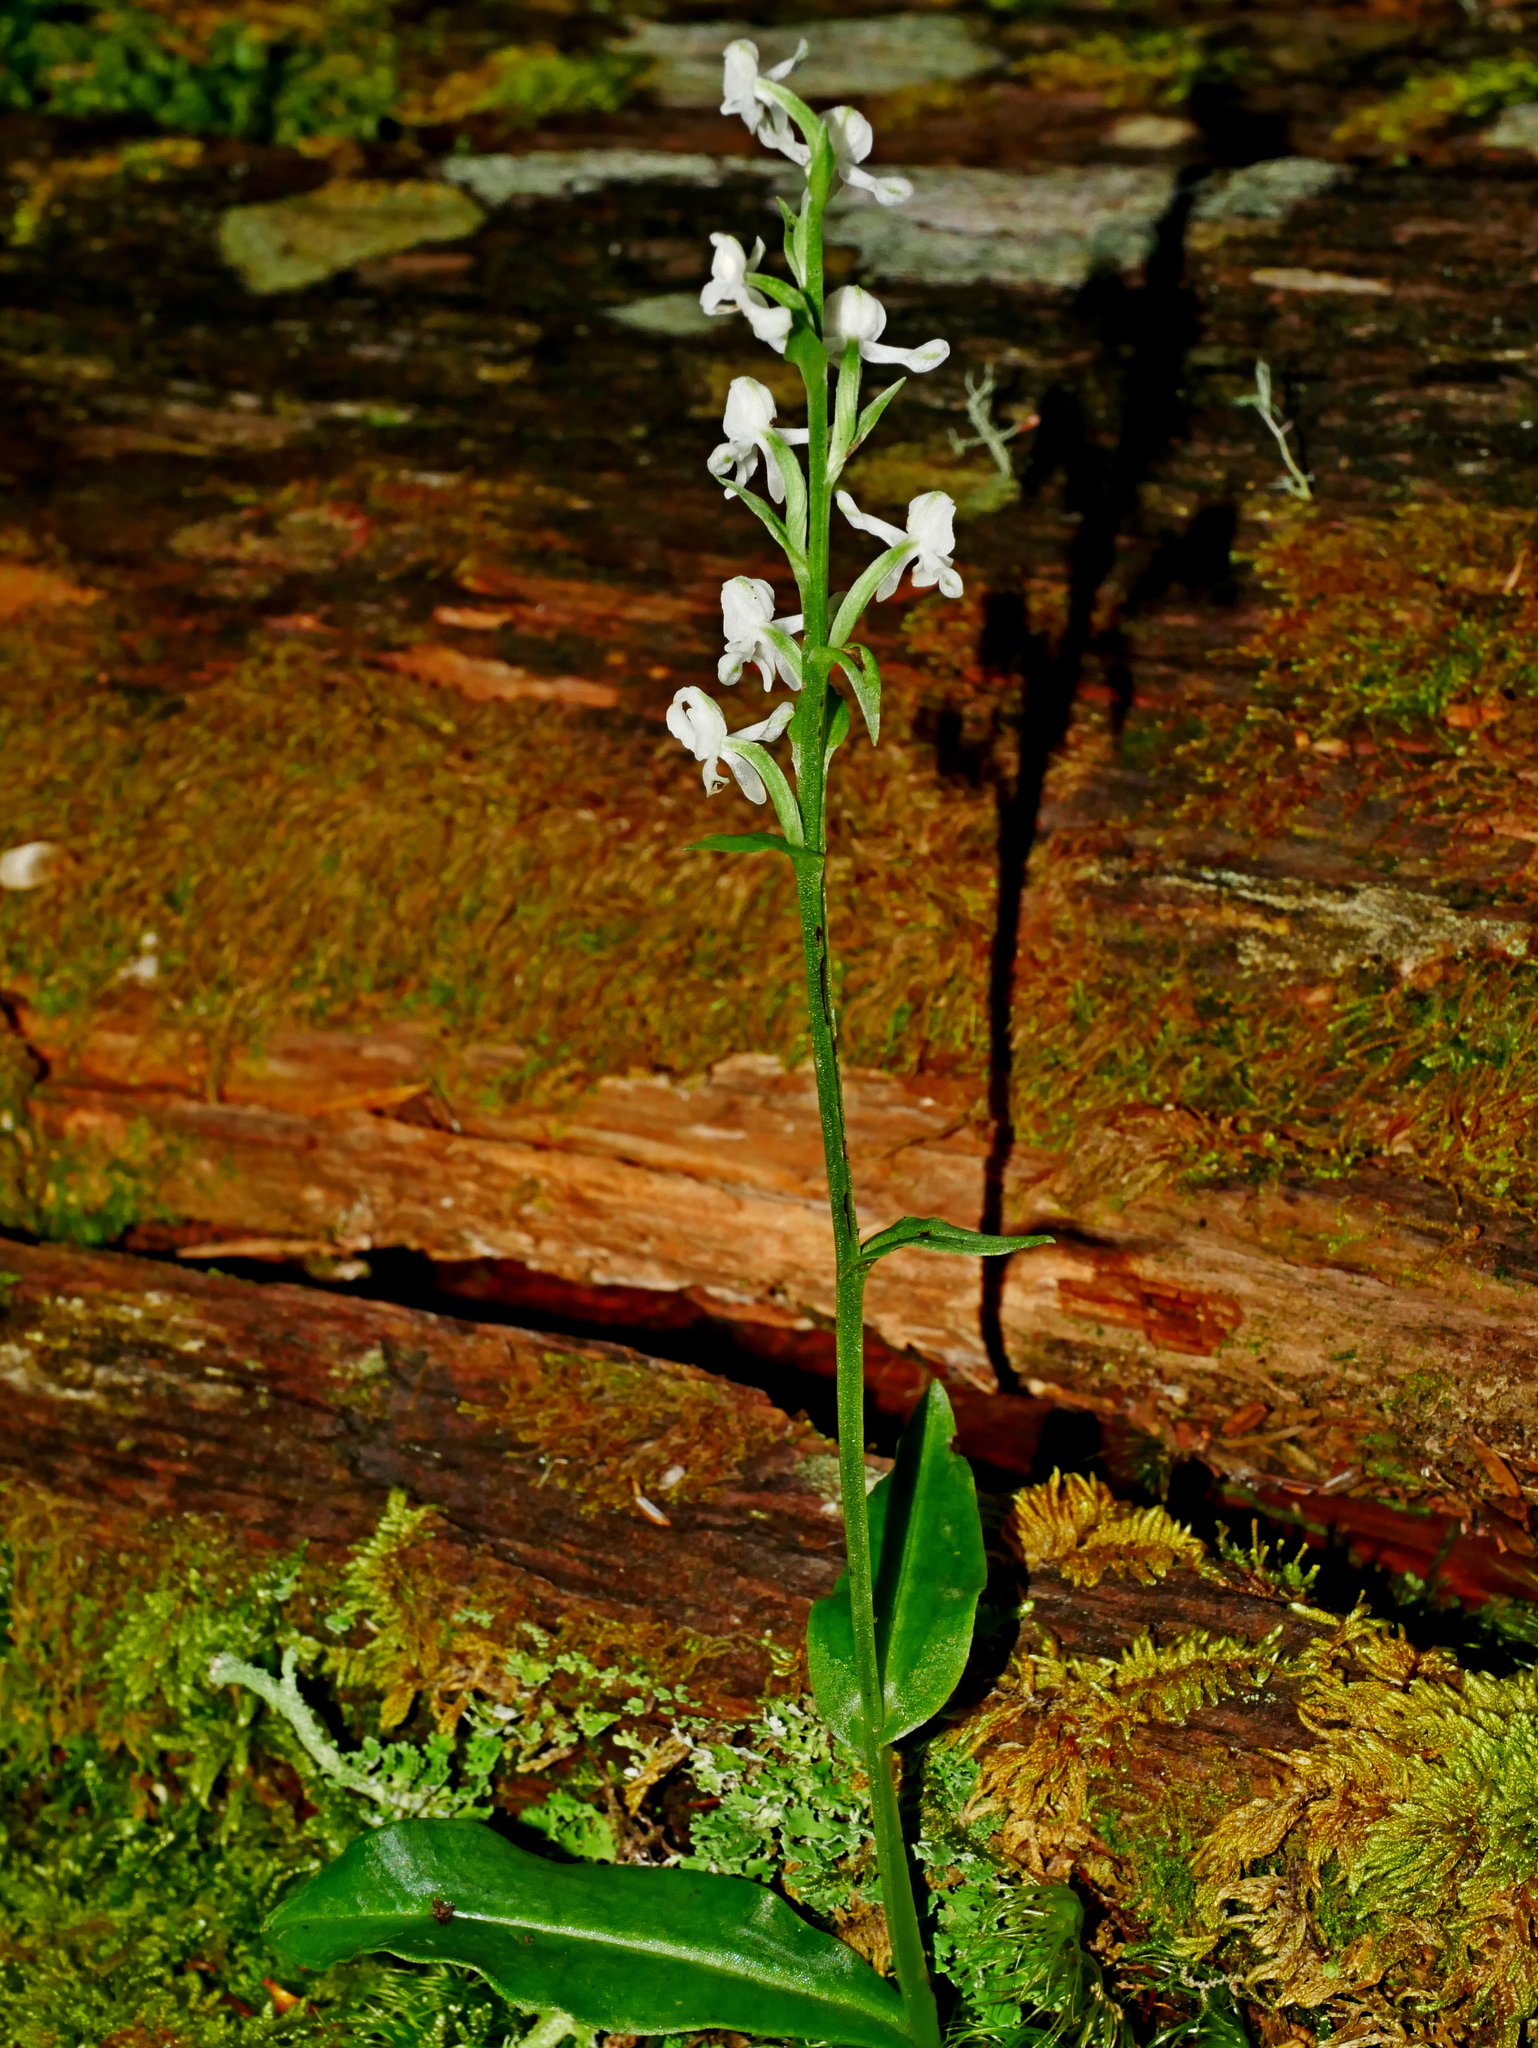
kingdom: Plantae
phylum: Tracheophyta
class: Liliopsida
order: Asparagales
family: Orchidaceae
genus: Platanthera
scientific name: Platanthera brevicalcarata
